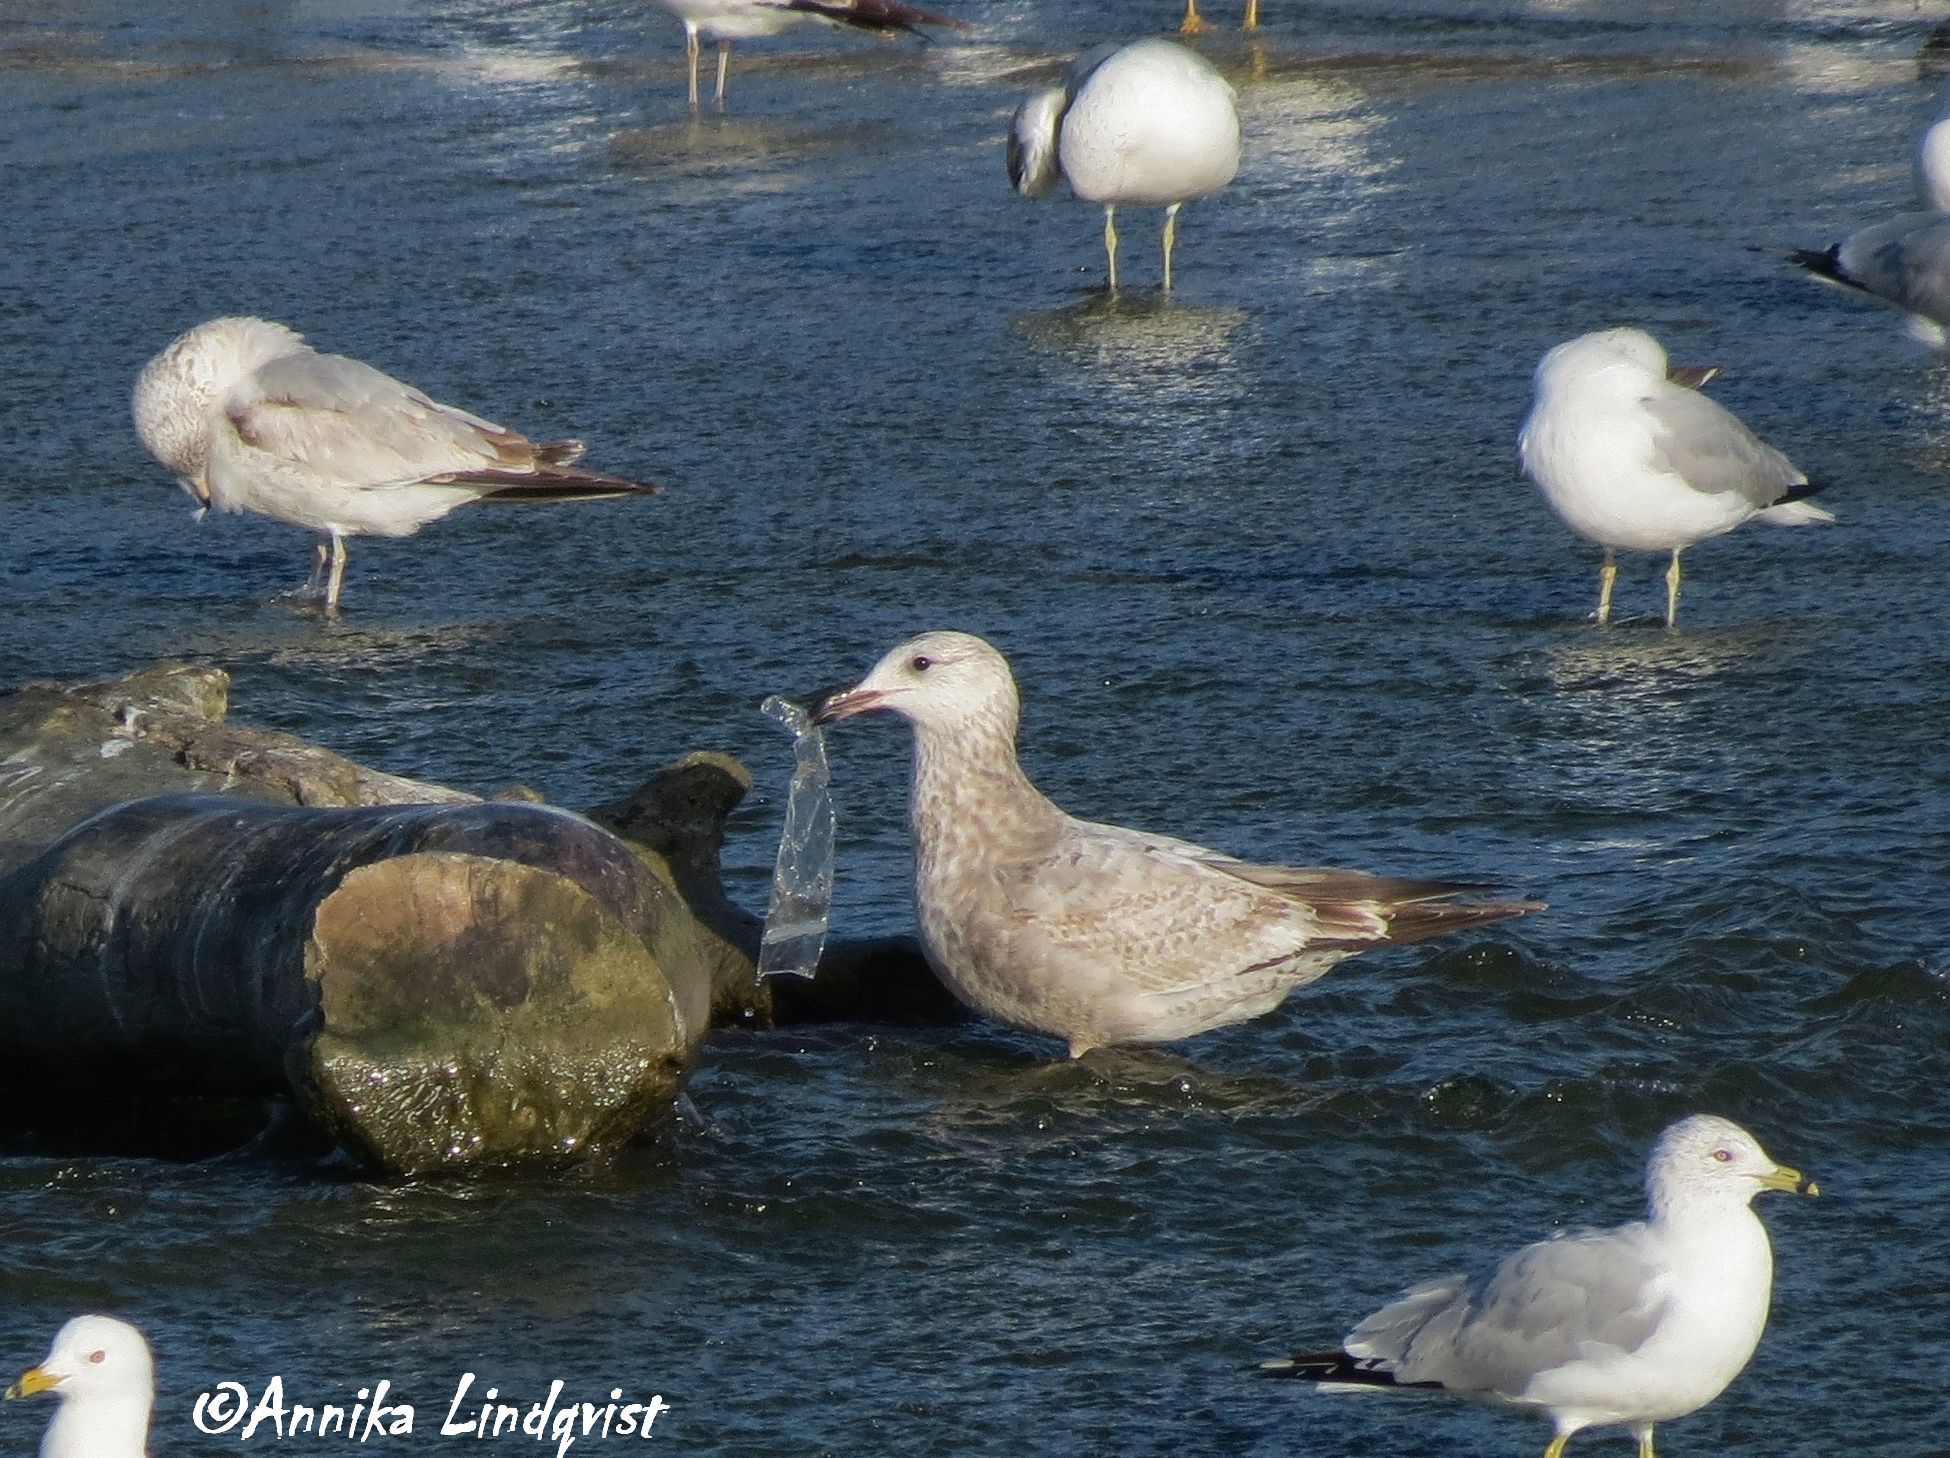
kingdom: Animalia
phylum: Chordata
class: Aves
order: Charadriiformes
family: Laridae
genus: Larus
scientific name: Larus argentatus
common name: Herring gull
